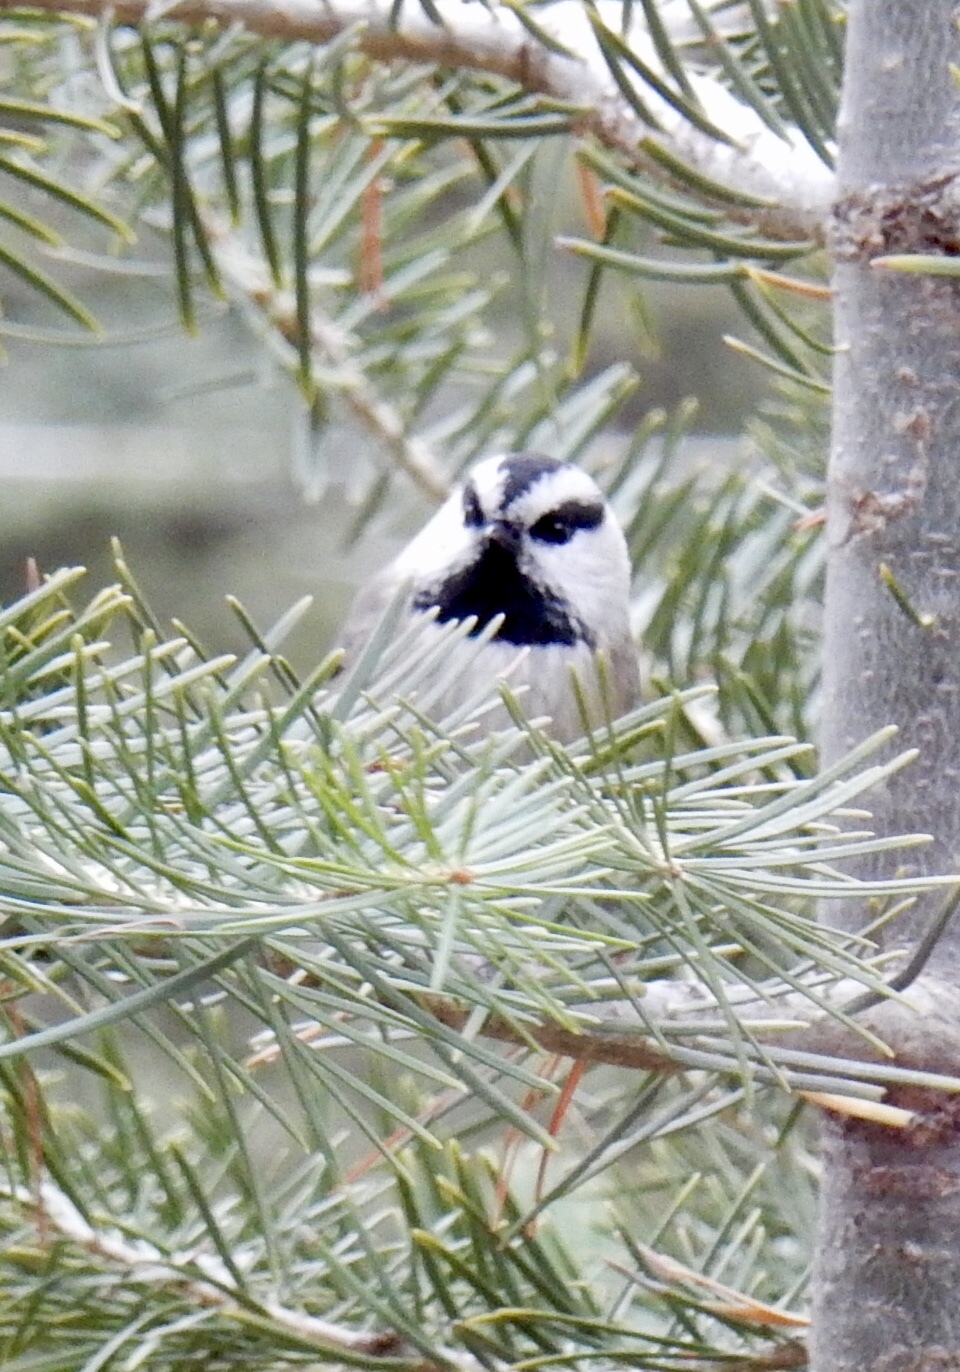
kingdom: Animalia
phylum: Chordata
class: Aves
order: Passeriformes
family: Paridae
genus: Poecile
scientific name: Poecile gambeli
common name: Mountain chickadee
